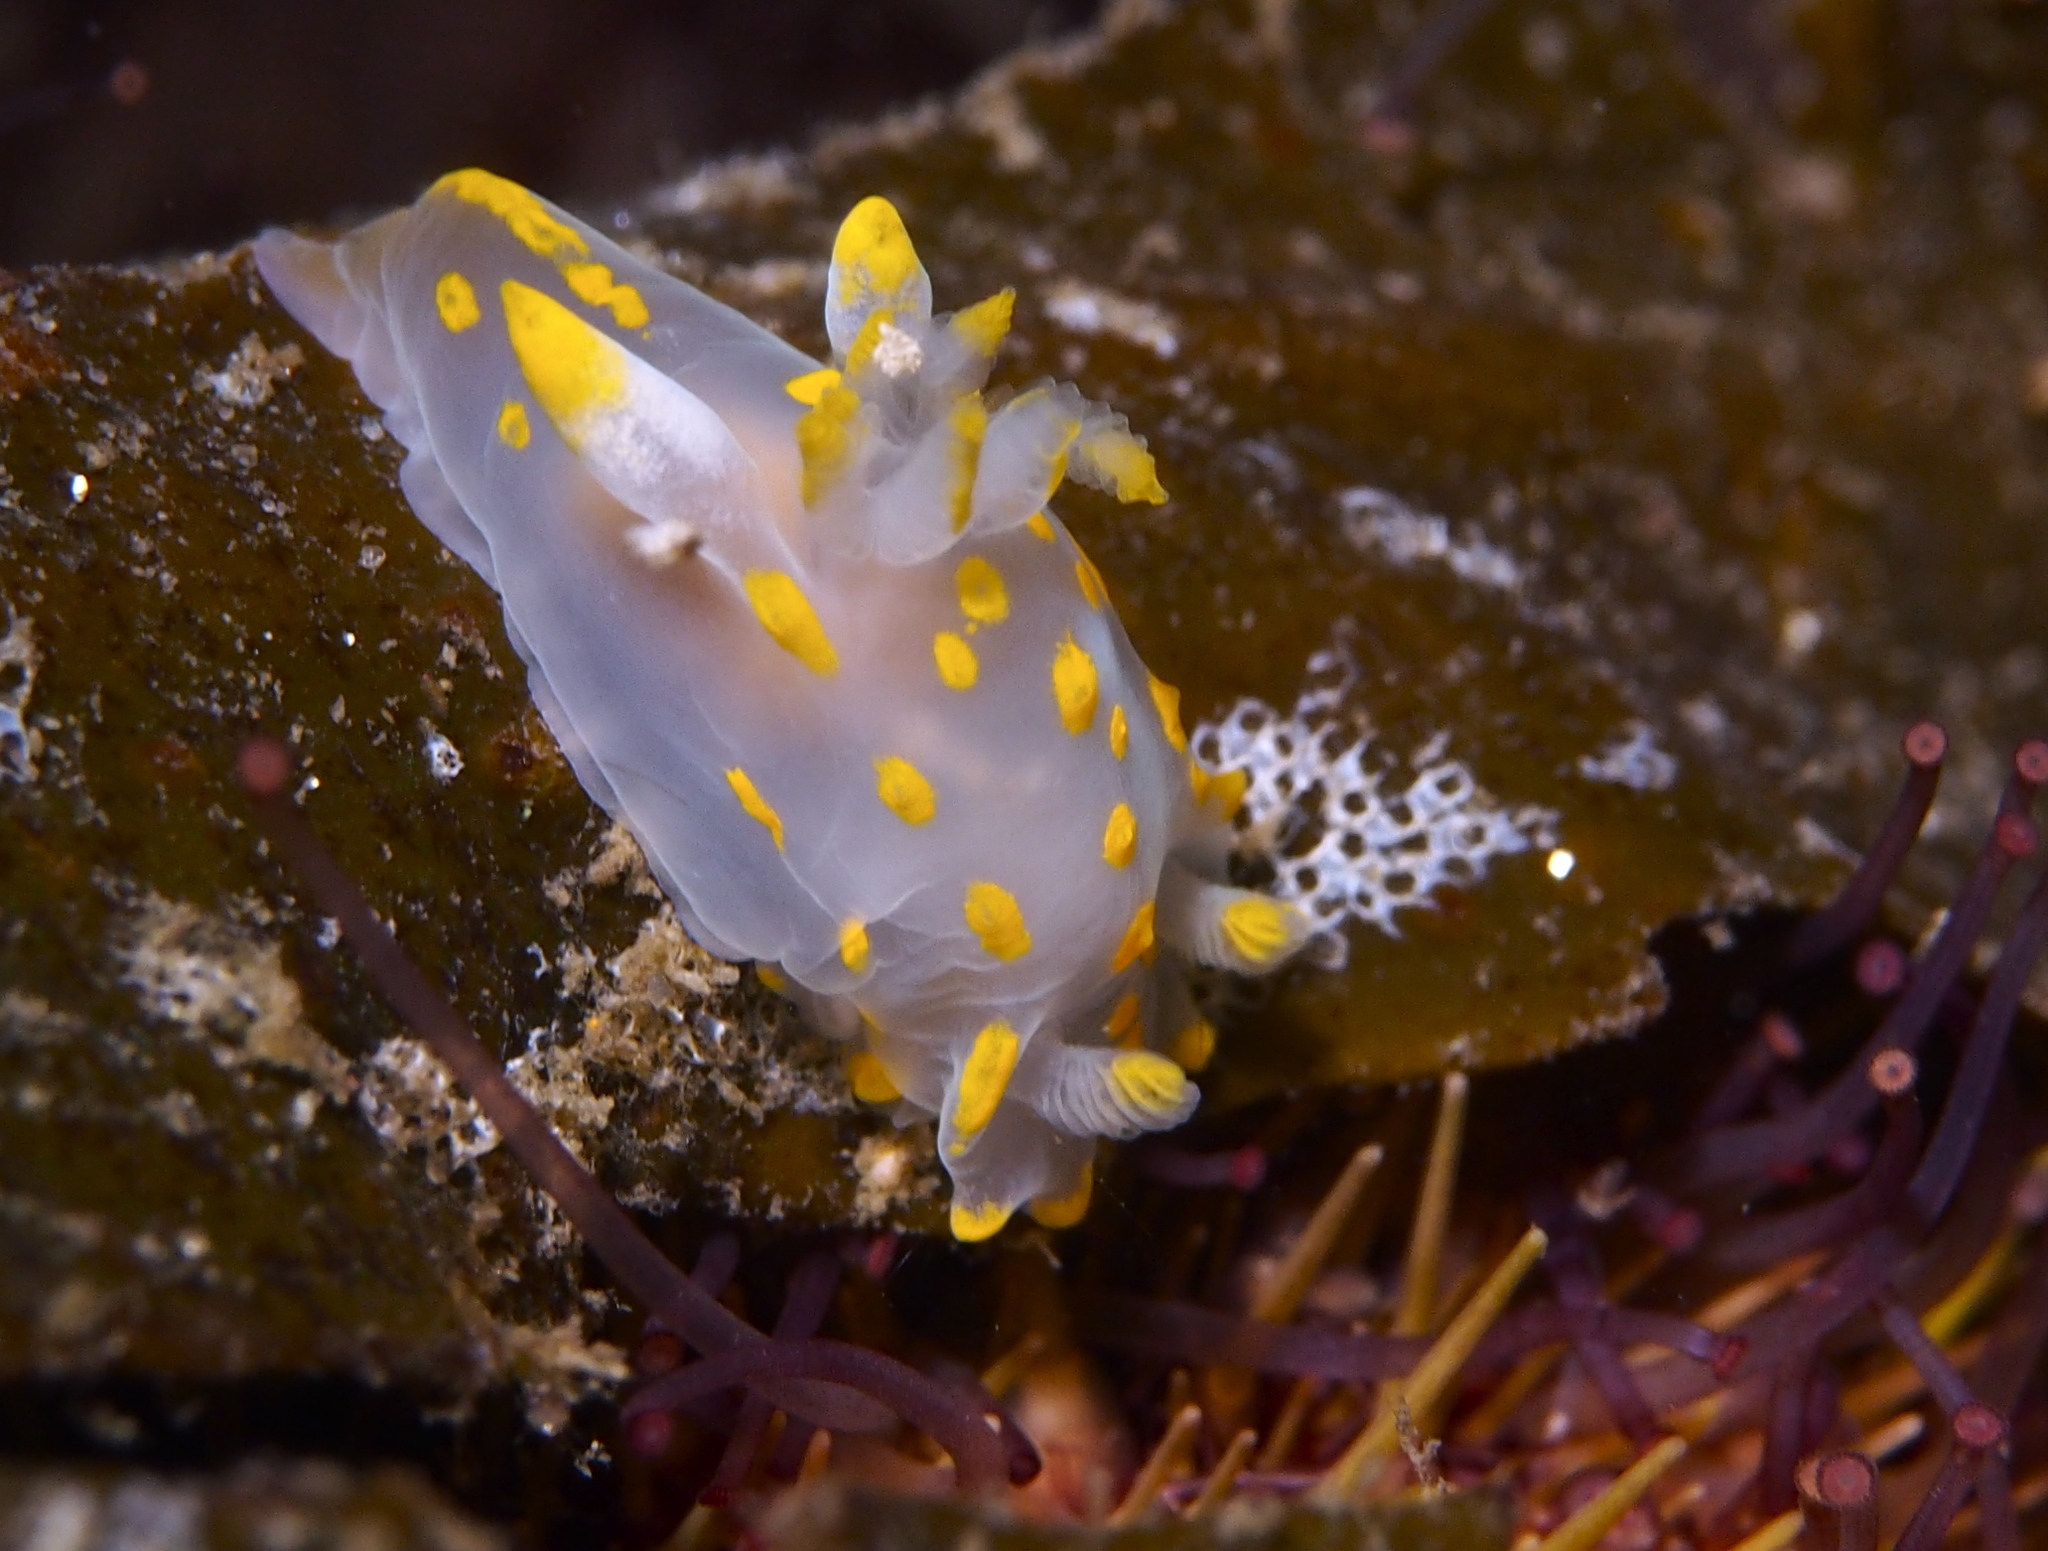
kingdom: Animalia
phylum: Mollusca
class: Gastropoda
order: Nudibranchia
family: Polyceridae
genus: Polycera
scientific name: Polycera quadrilineata
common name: Four-striped polycera
